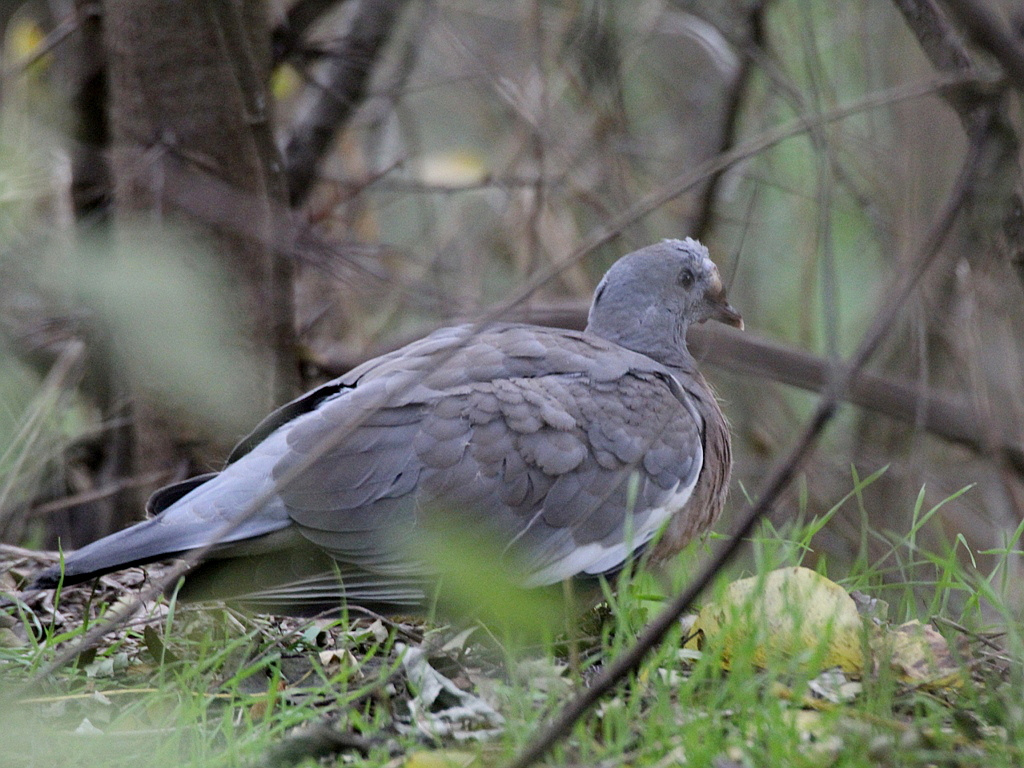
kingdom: Animalia
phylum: Chordata
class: Aves
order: Columbiformes
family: Columbidae
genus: Columba
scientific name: Columba palumbus
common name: Common wood pigeon
